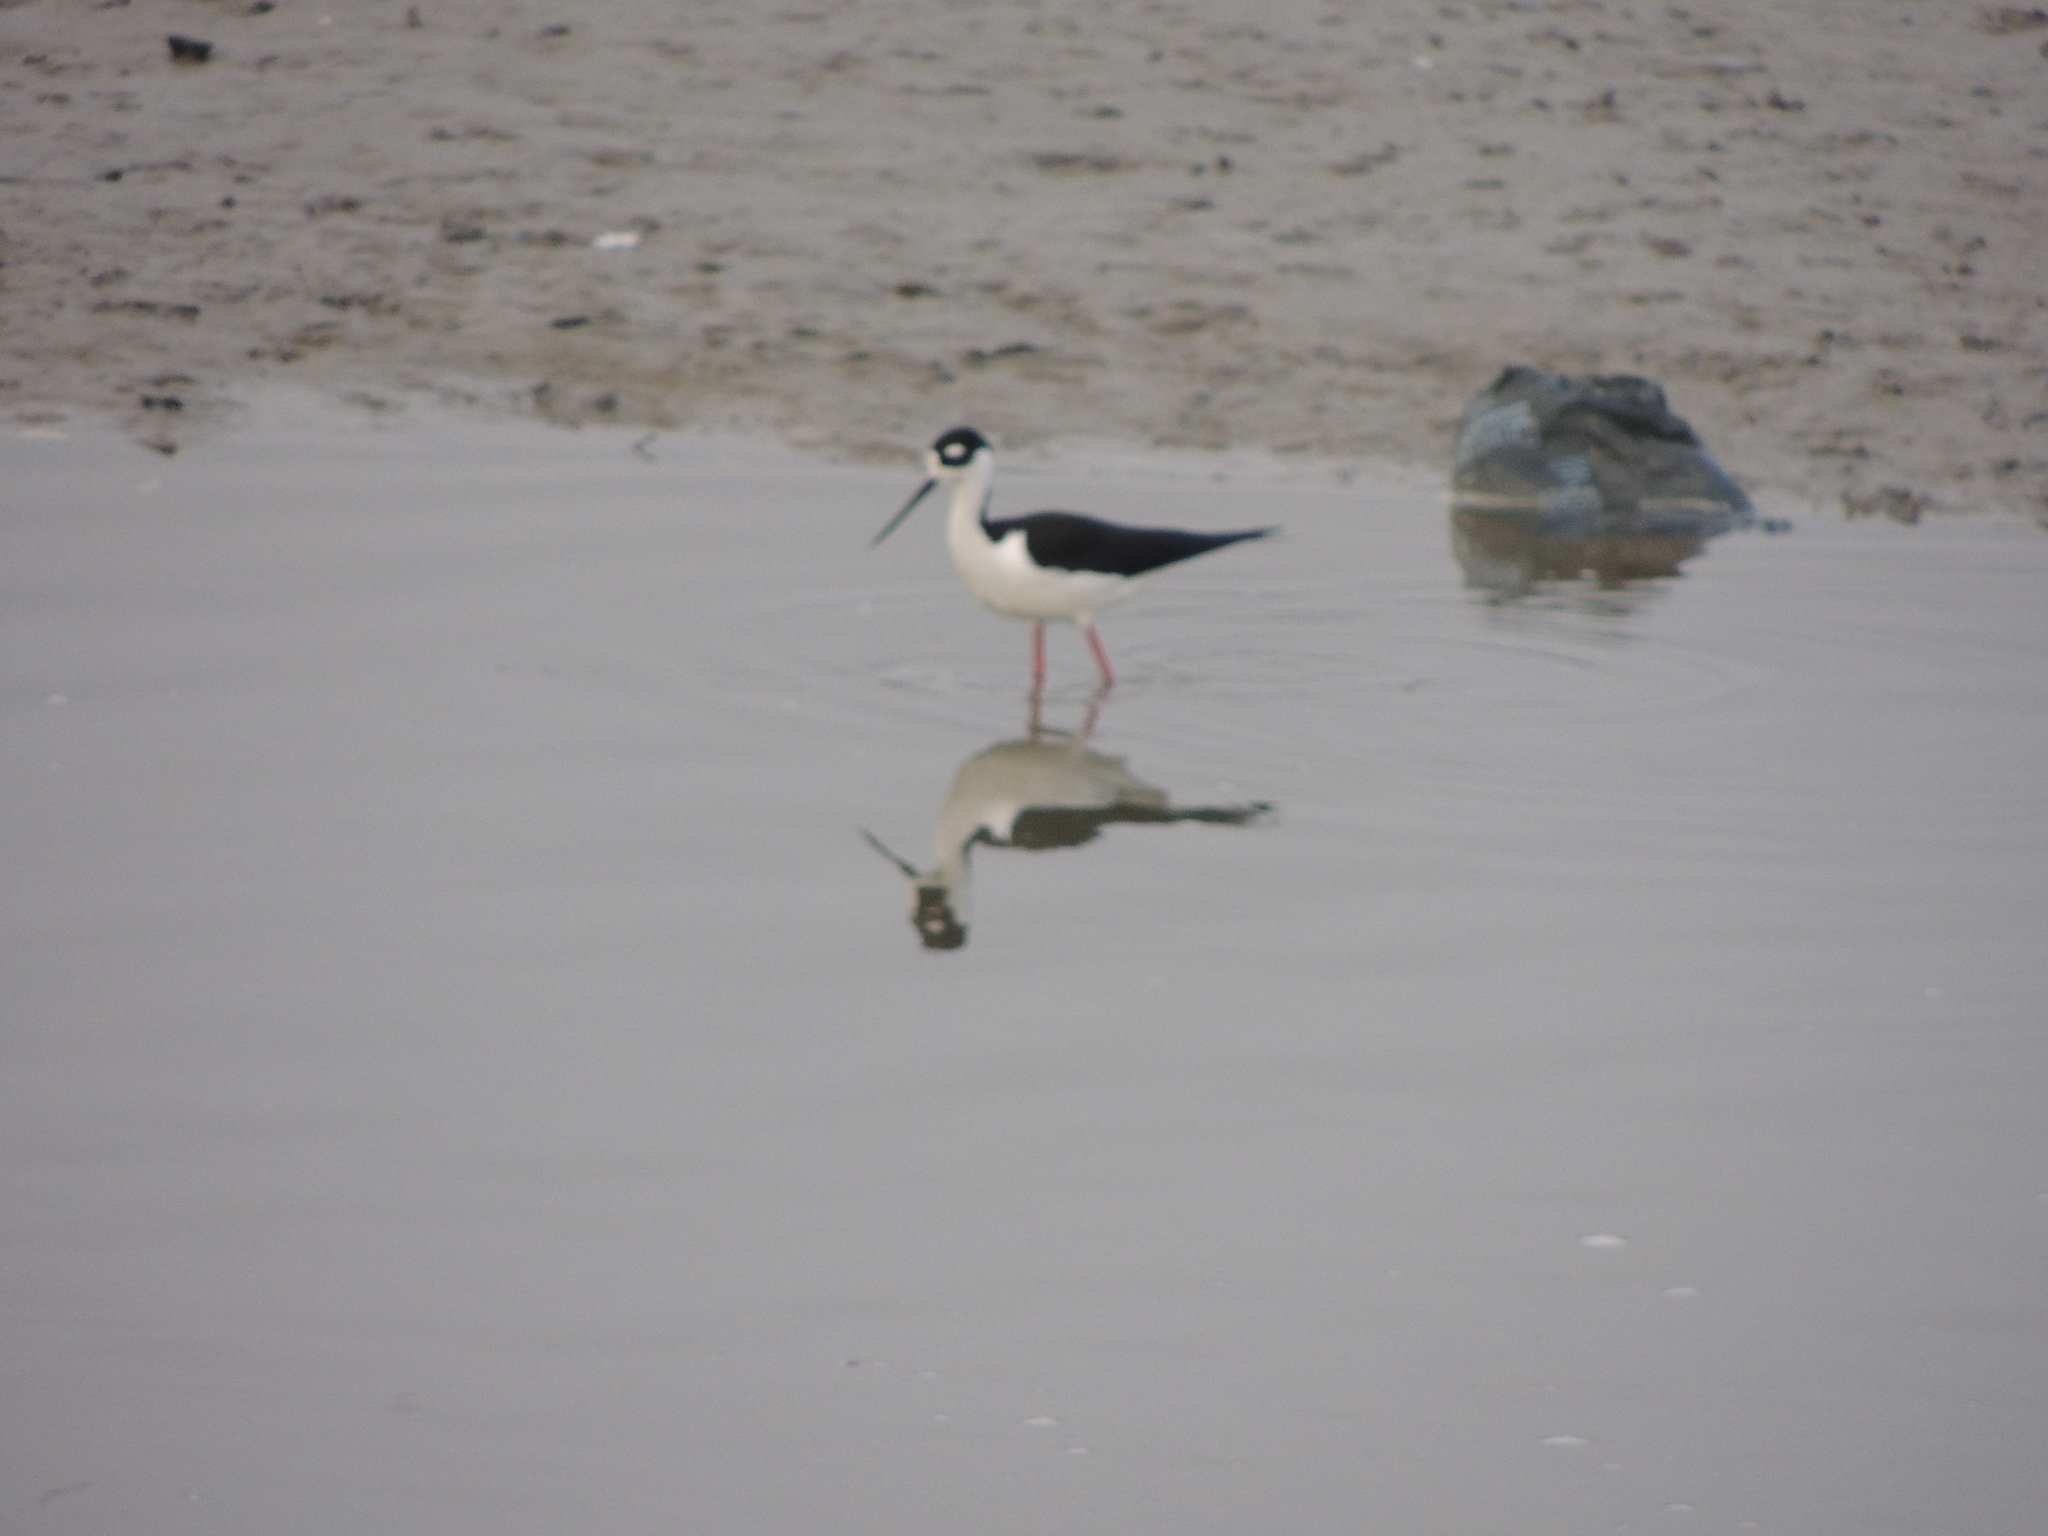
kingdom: Animalia
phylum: Chordata
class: Aves
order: Charadriiformes
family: Recurvirostridae
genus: Himantopus
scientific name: Himantopus mexicanus
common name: Black-necked stilt
